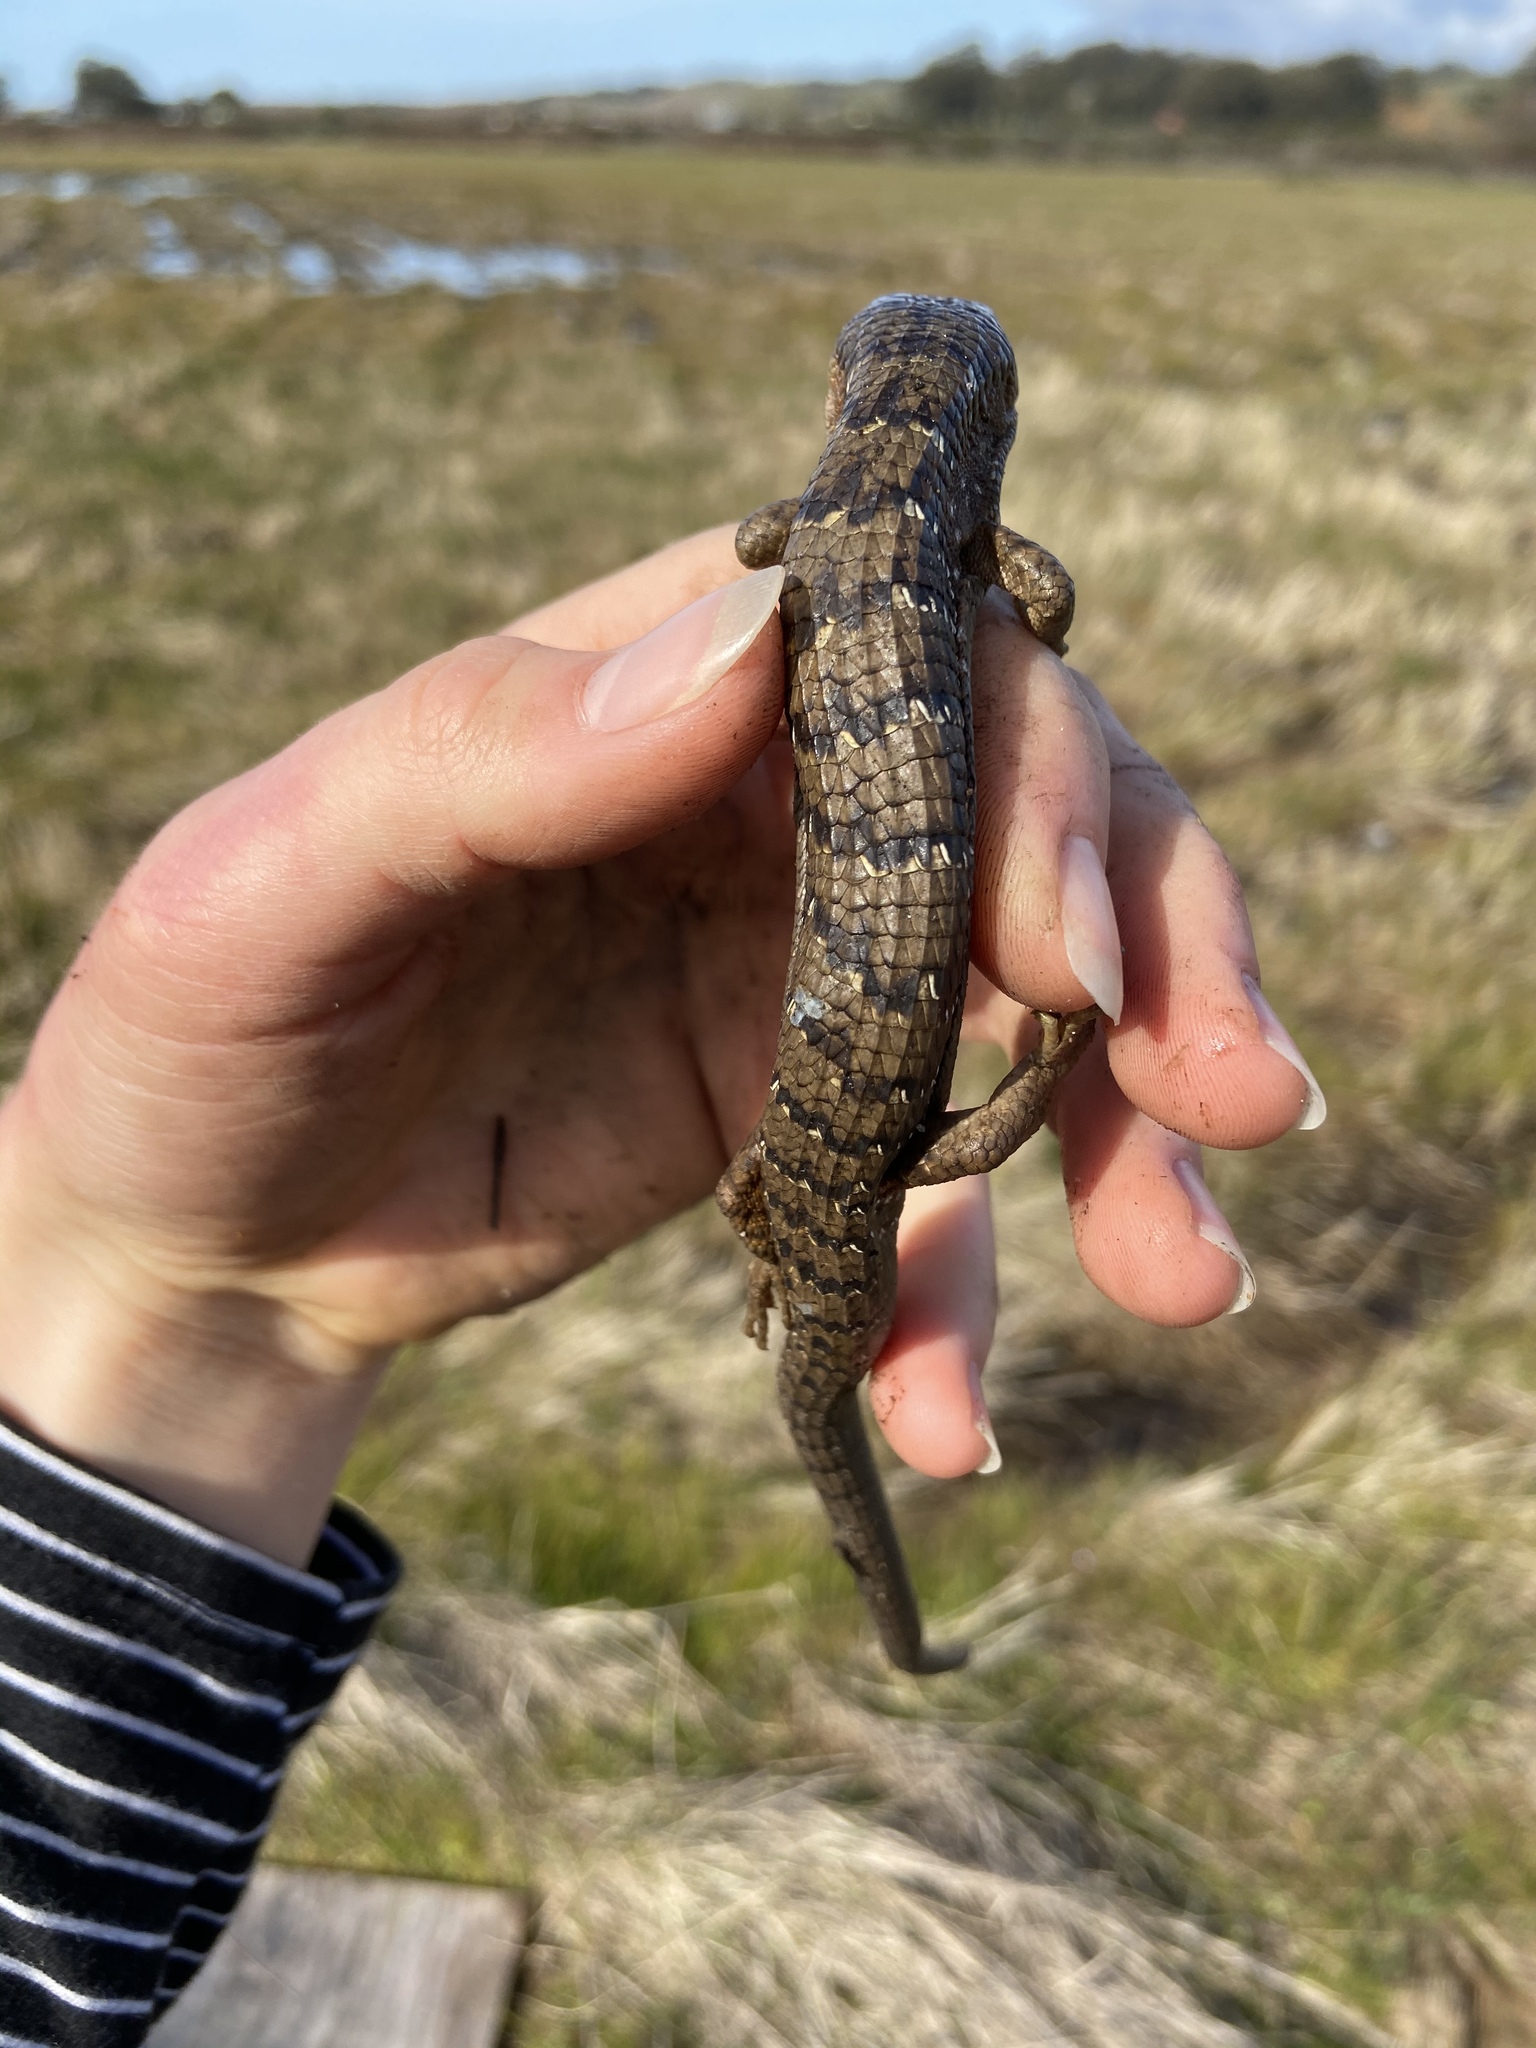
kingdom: Animalia
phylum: Chordata
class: Squamata
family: Anguidae
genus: Elgaria
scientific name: Elgaria multicarinata
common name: Southern alligator lizard
